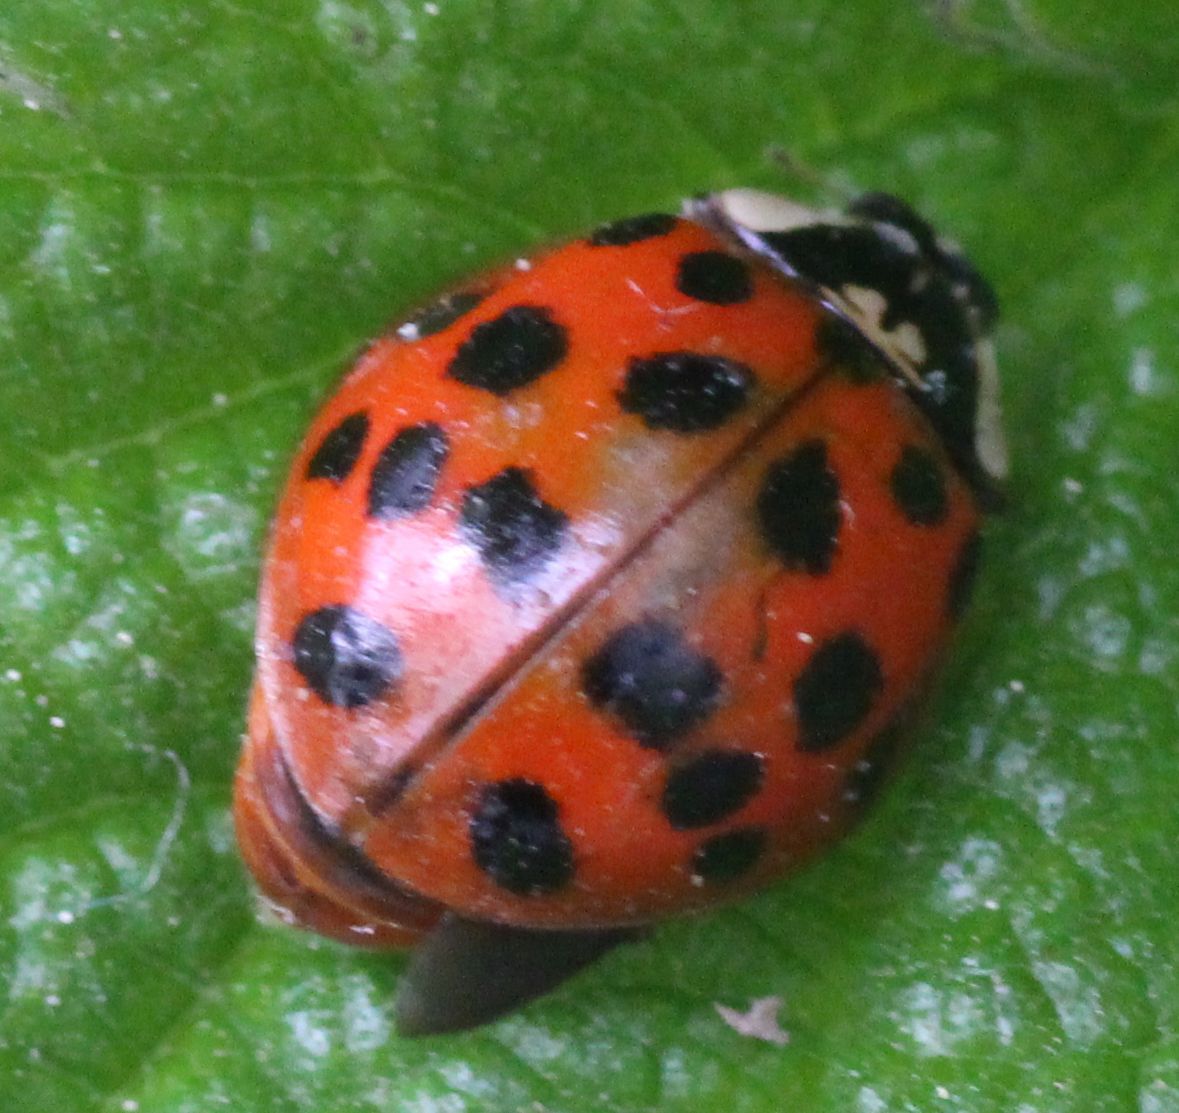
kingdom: Animalia
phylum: Arthropoda
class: Insecta
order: Coleoptera
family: Coccinellidae
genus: Harmonia
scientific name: Harmonia axyridis
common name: Harlequin ladybird
